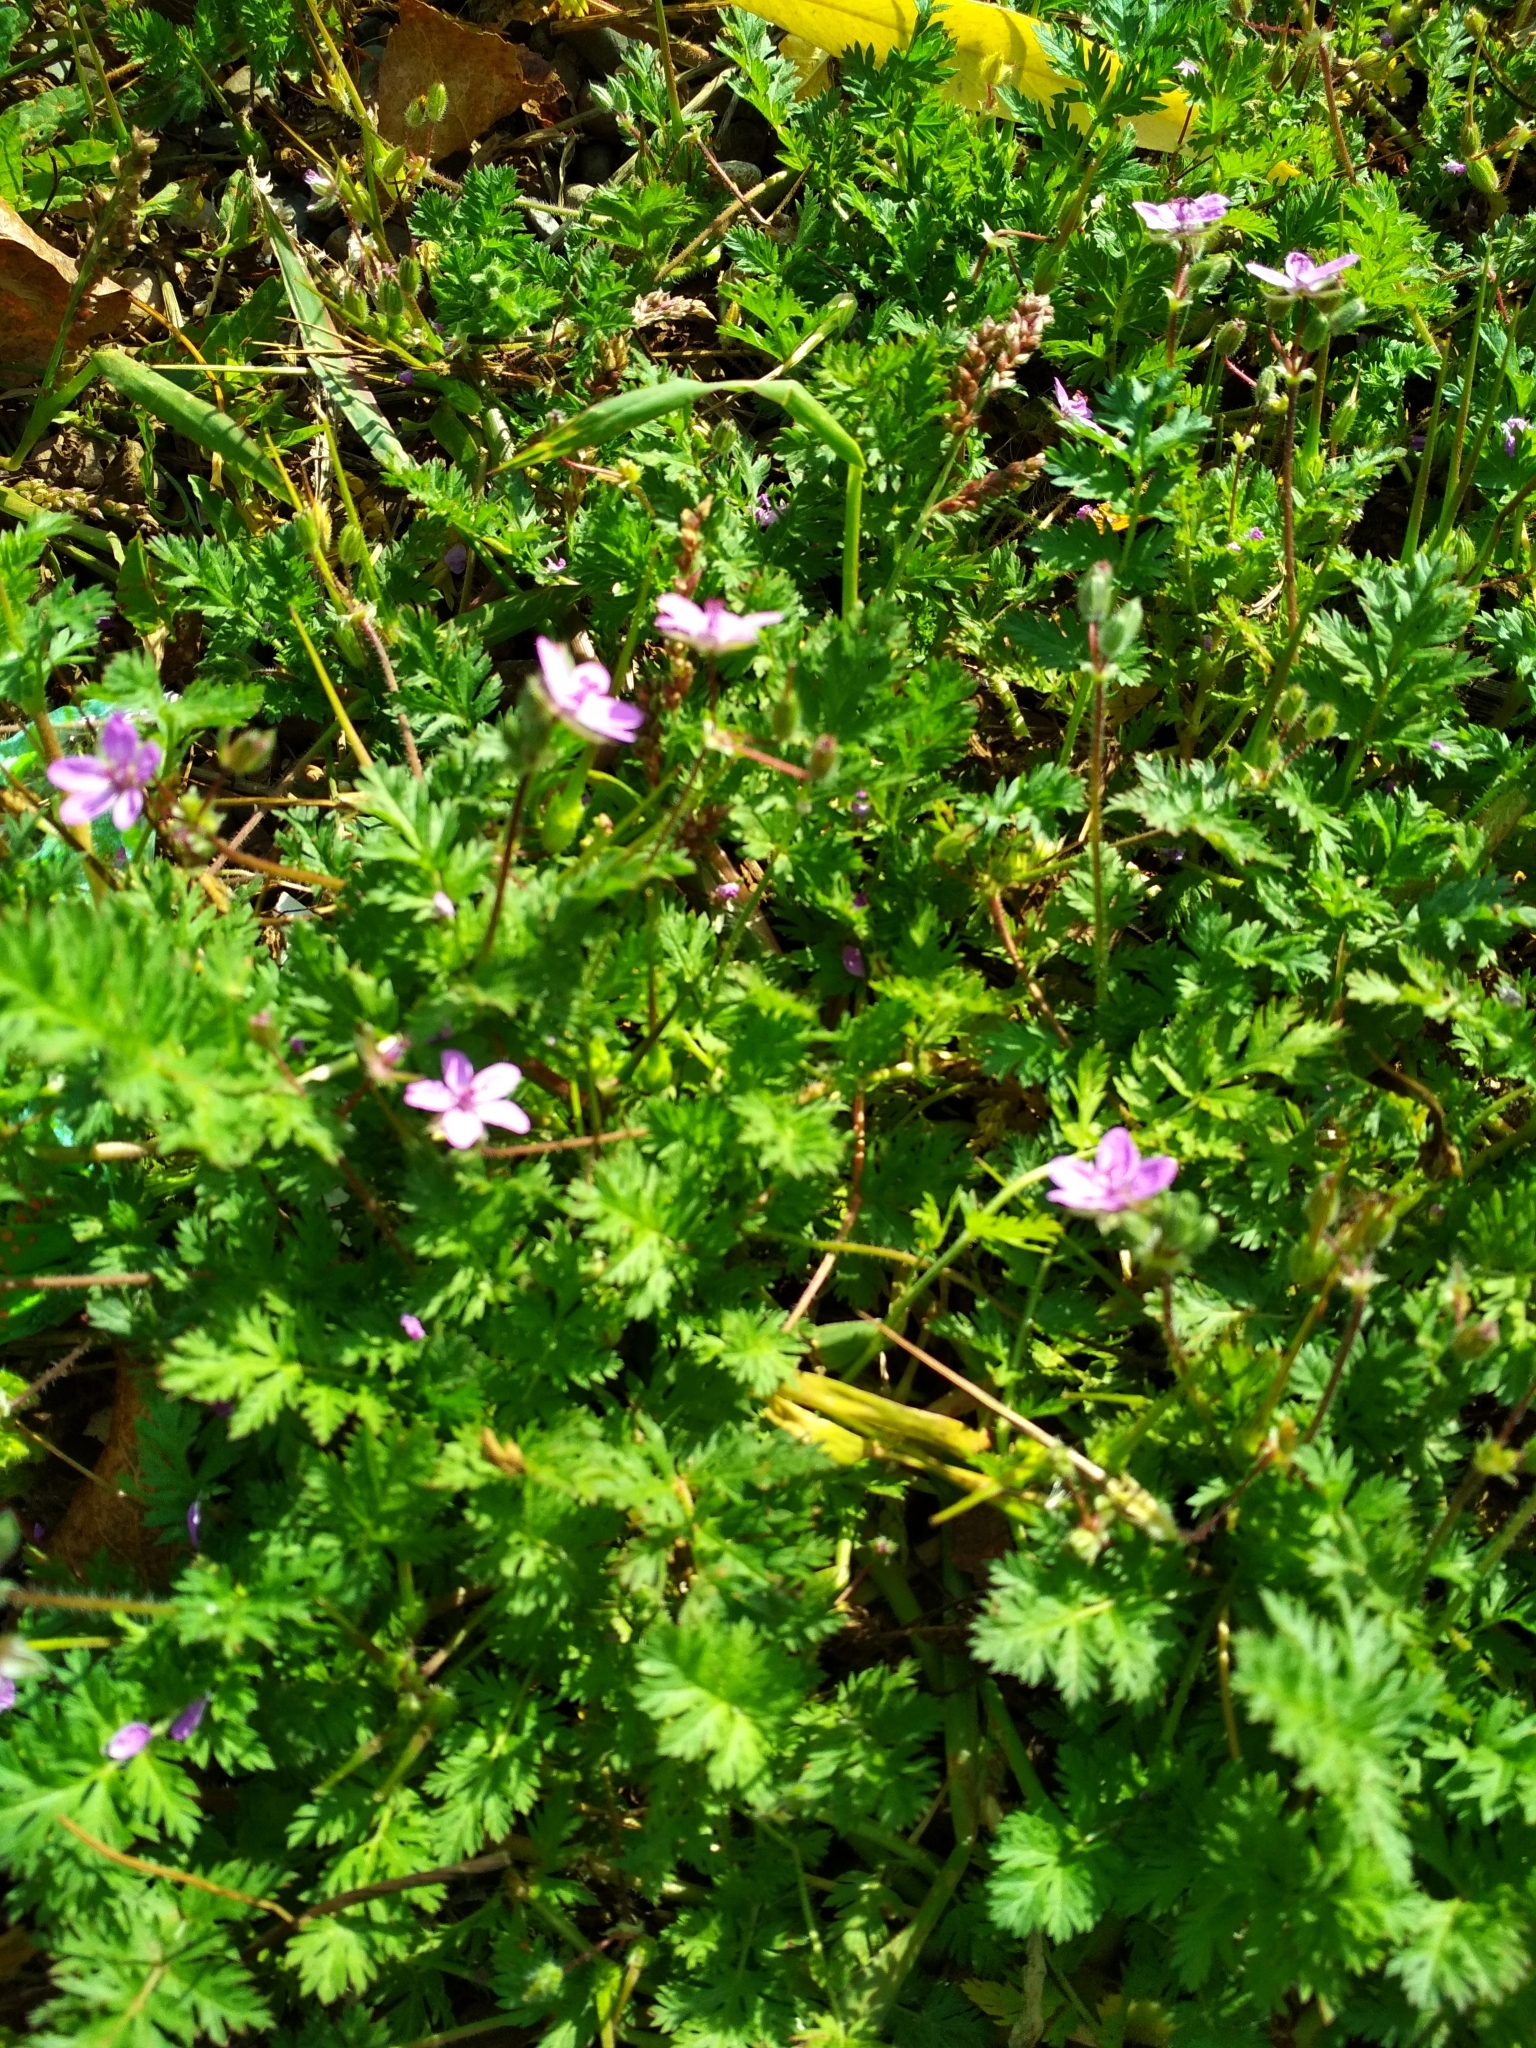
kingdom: Plantae
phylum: Tracheophyta
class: Magnoliopsida
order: Geraniales
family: Geraniaceae
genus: Erodium
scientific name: Erodium cicutarium
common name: Common stork's-bill
